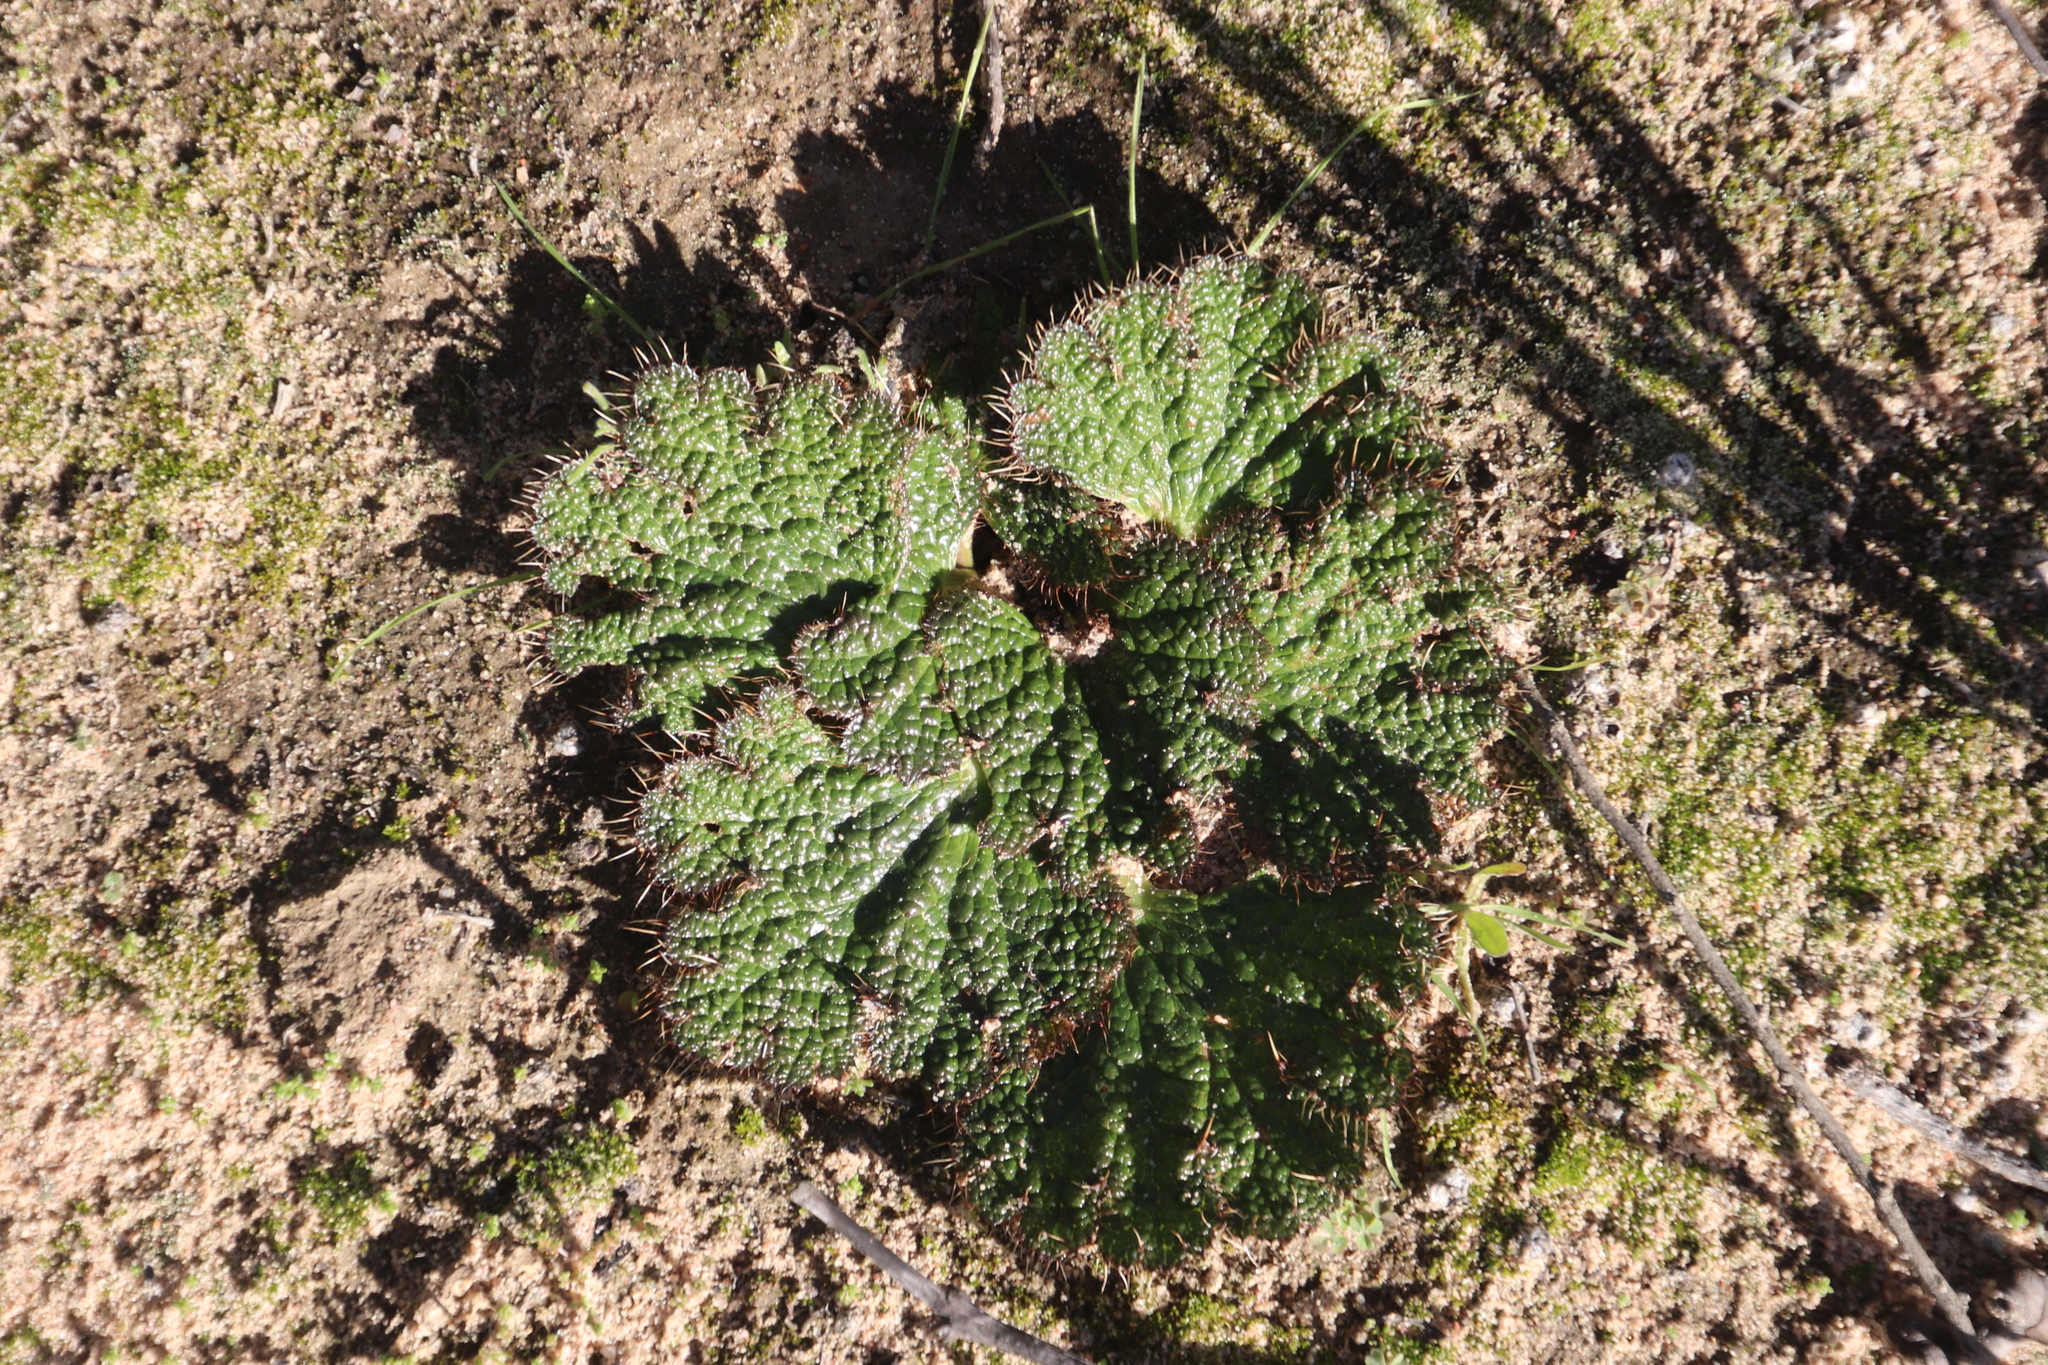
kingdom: Plantae
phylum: Tracheophyta
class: Magnoliopsida
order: Apiales
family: Apiaceae
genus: Arctopus
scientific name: Arctopus dregei
